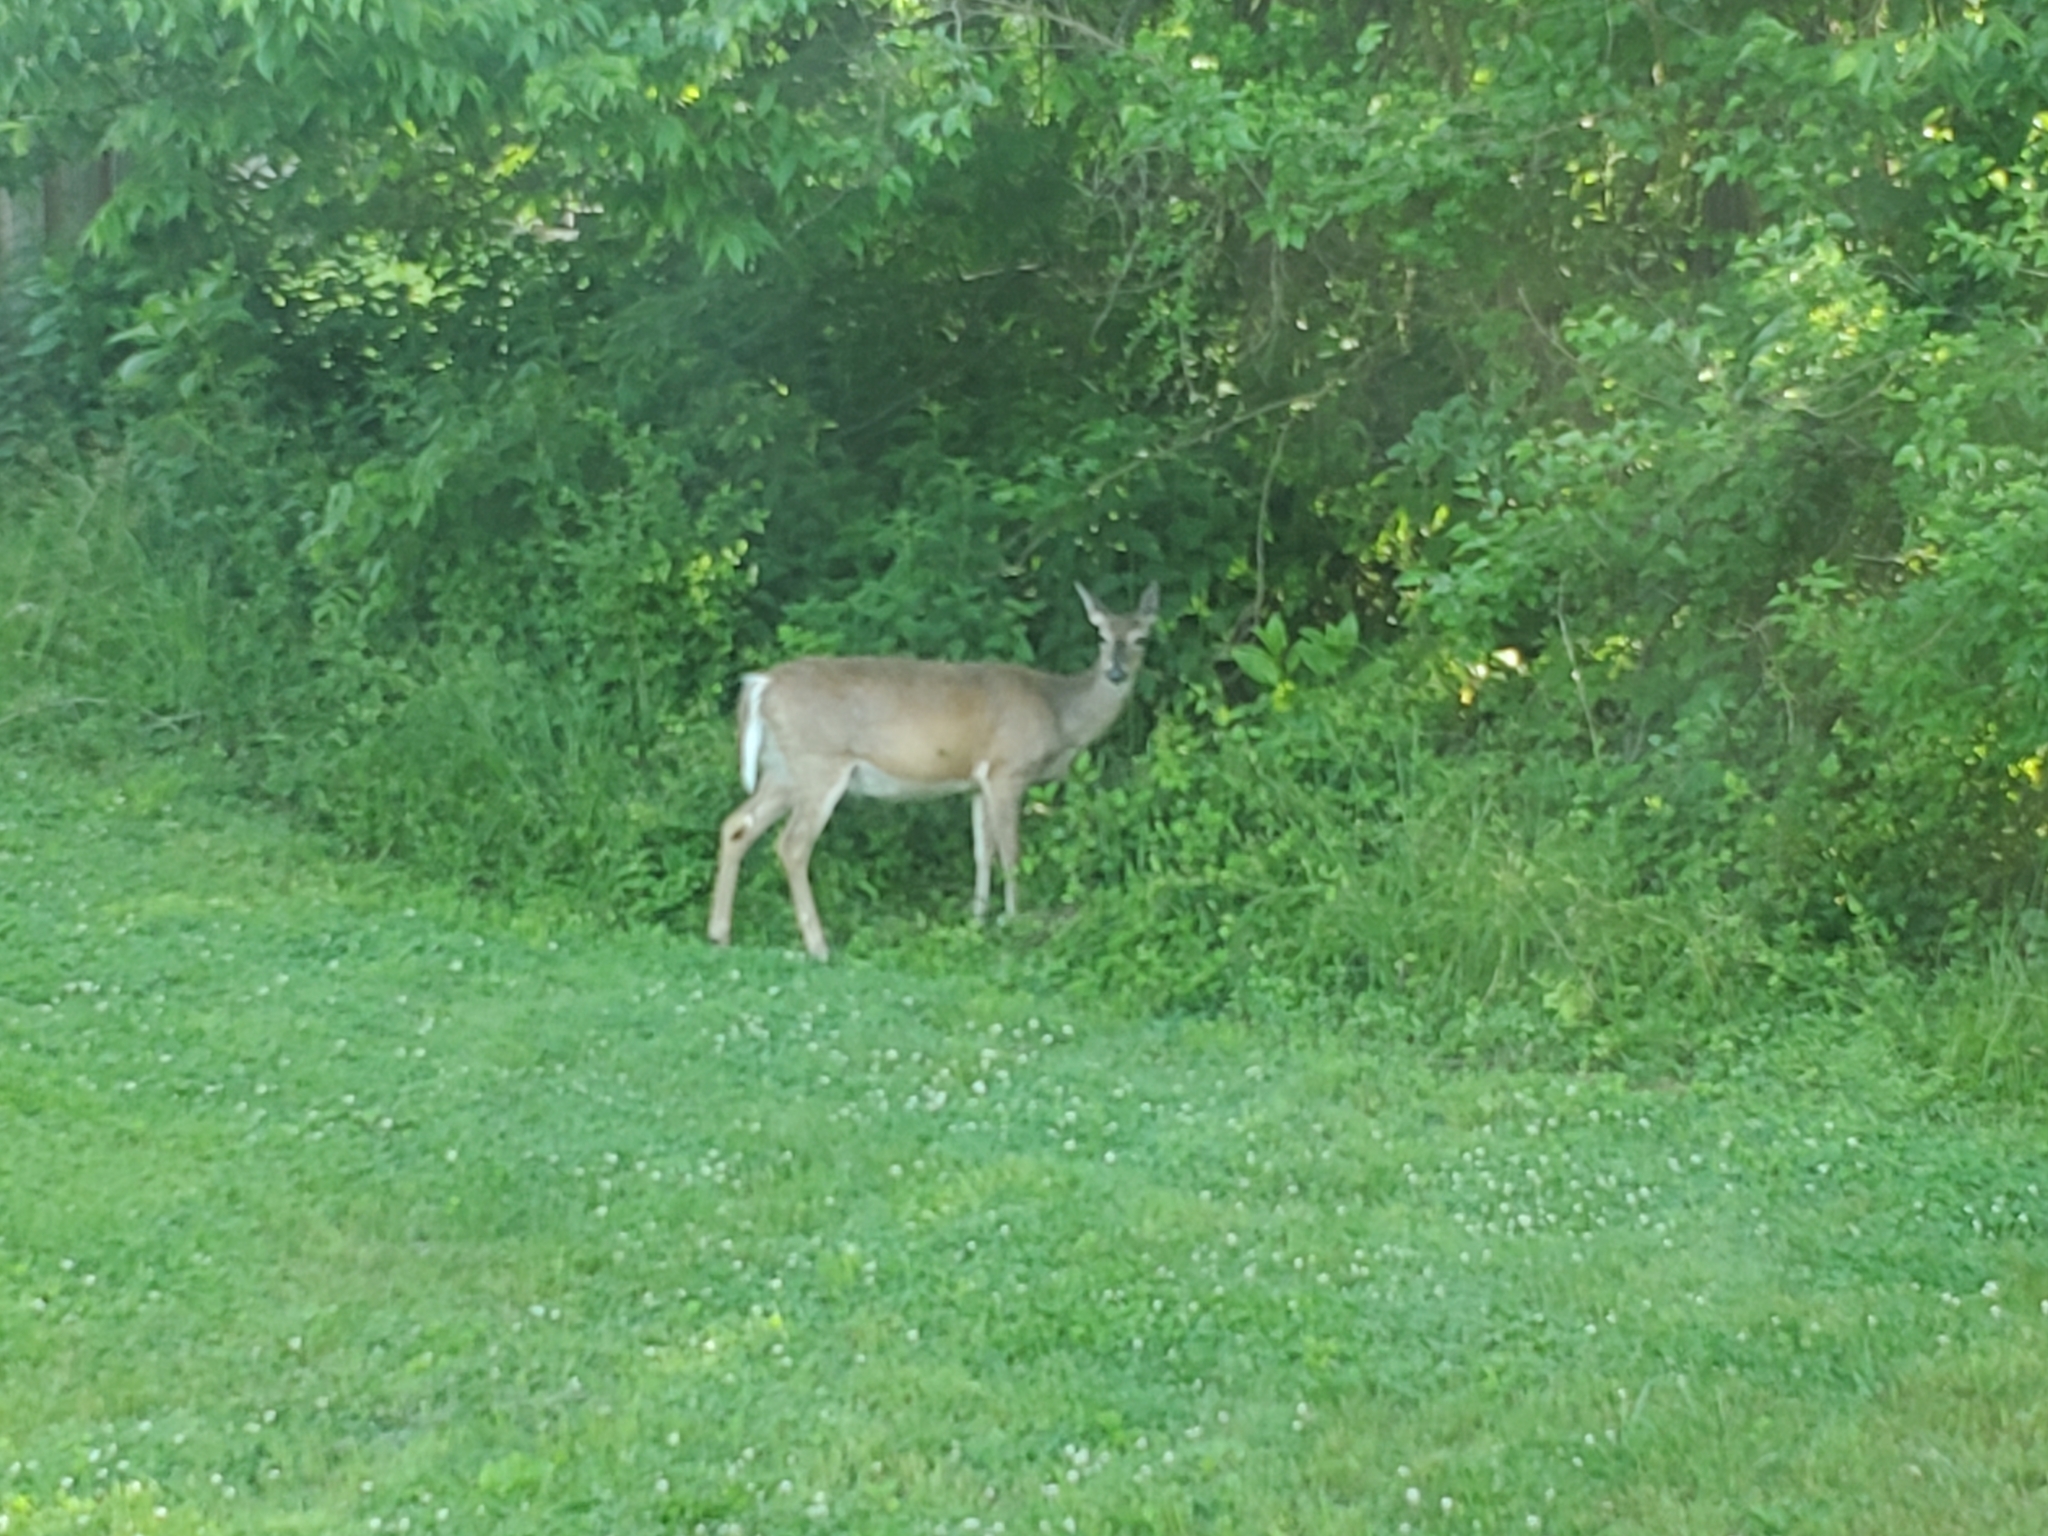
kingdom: Animalia
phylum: Chordata
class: Mammalia
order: Artiodactyla
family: Cervidae
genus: Odocoileus
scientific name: Odocoileus virginianus
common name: White-tailed deer
